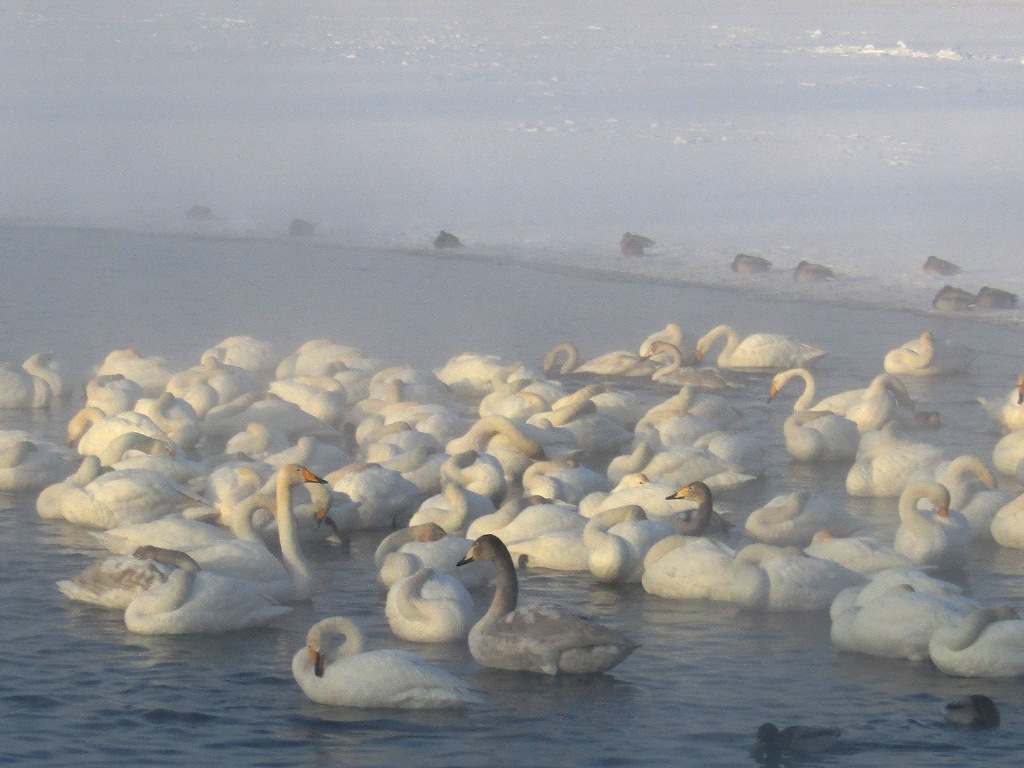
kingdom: Animalia
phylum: Chordata
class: Aves
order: Anseriformes
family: Anatidae
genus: Cygnus
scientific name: Cygnus cygnus
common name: Whooper swan
